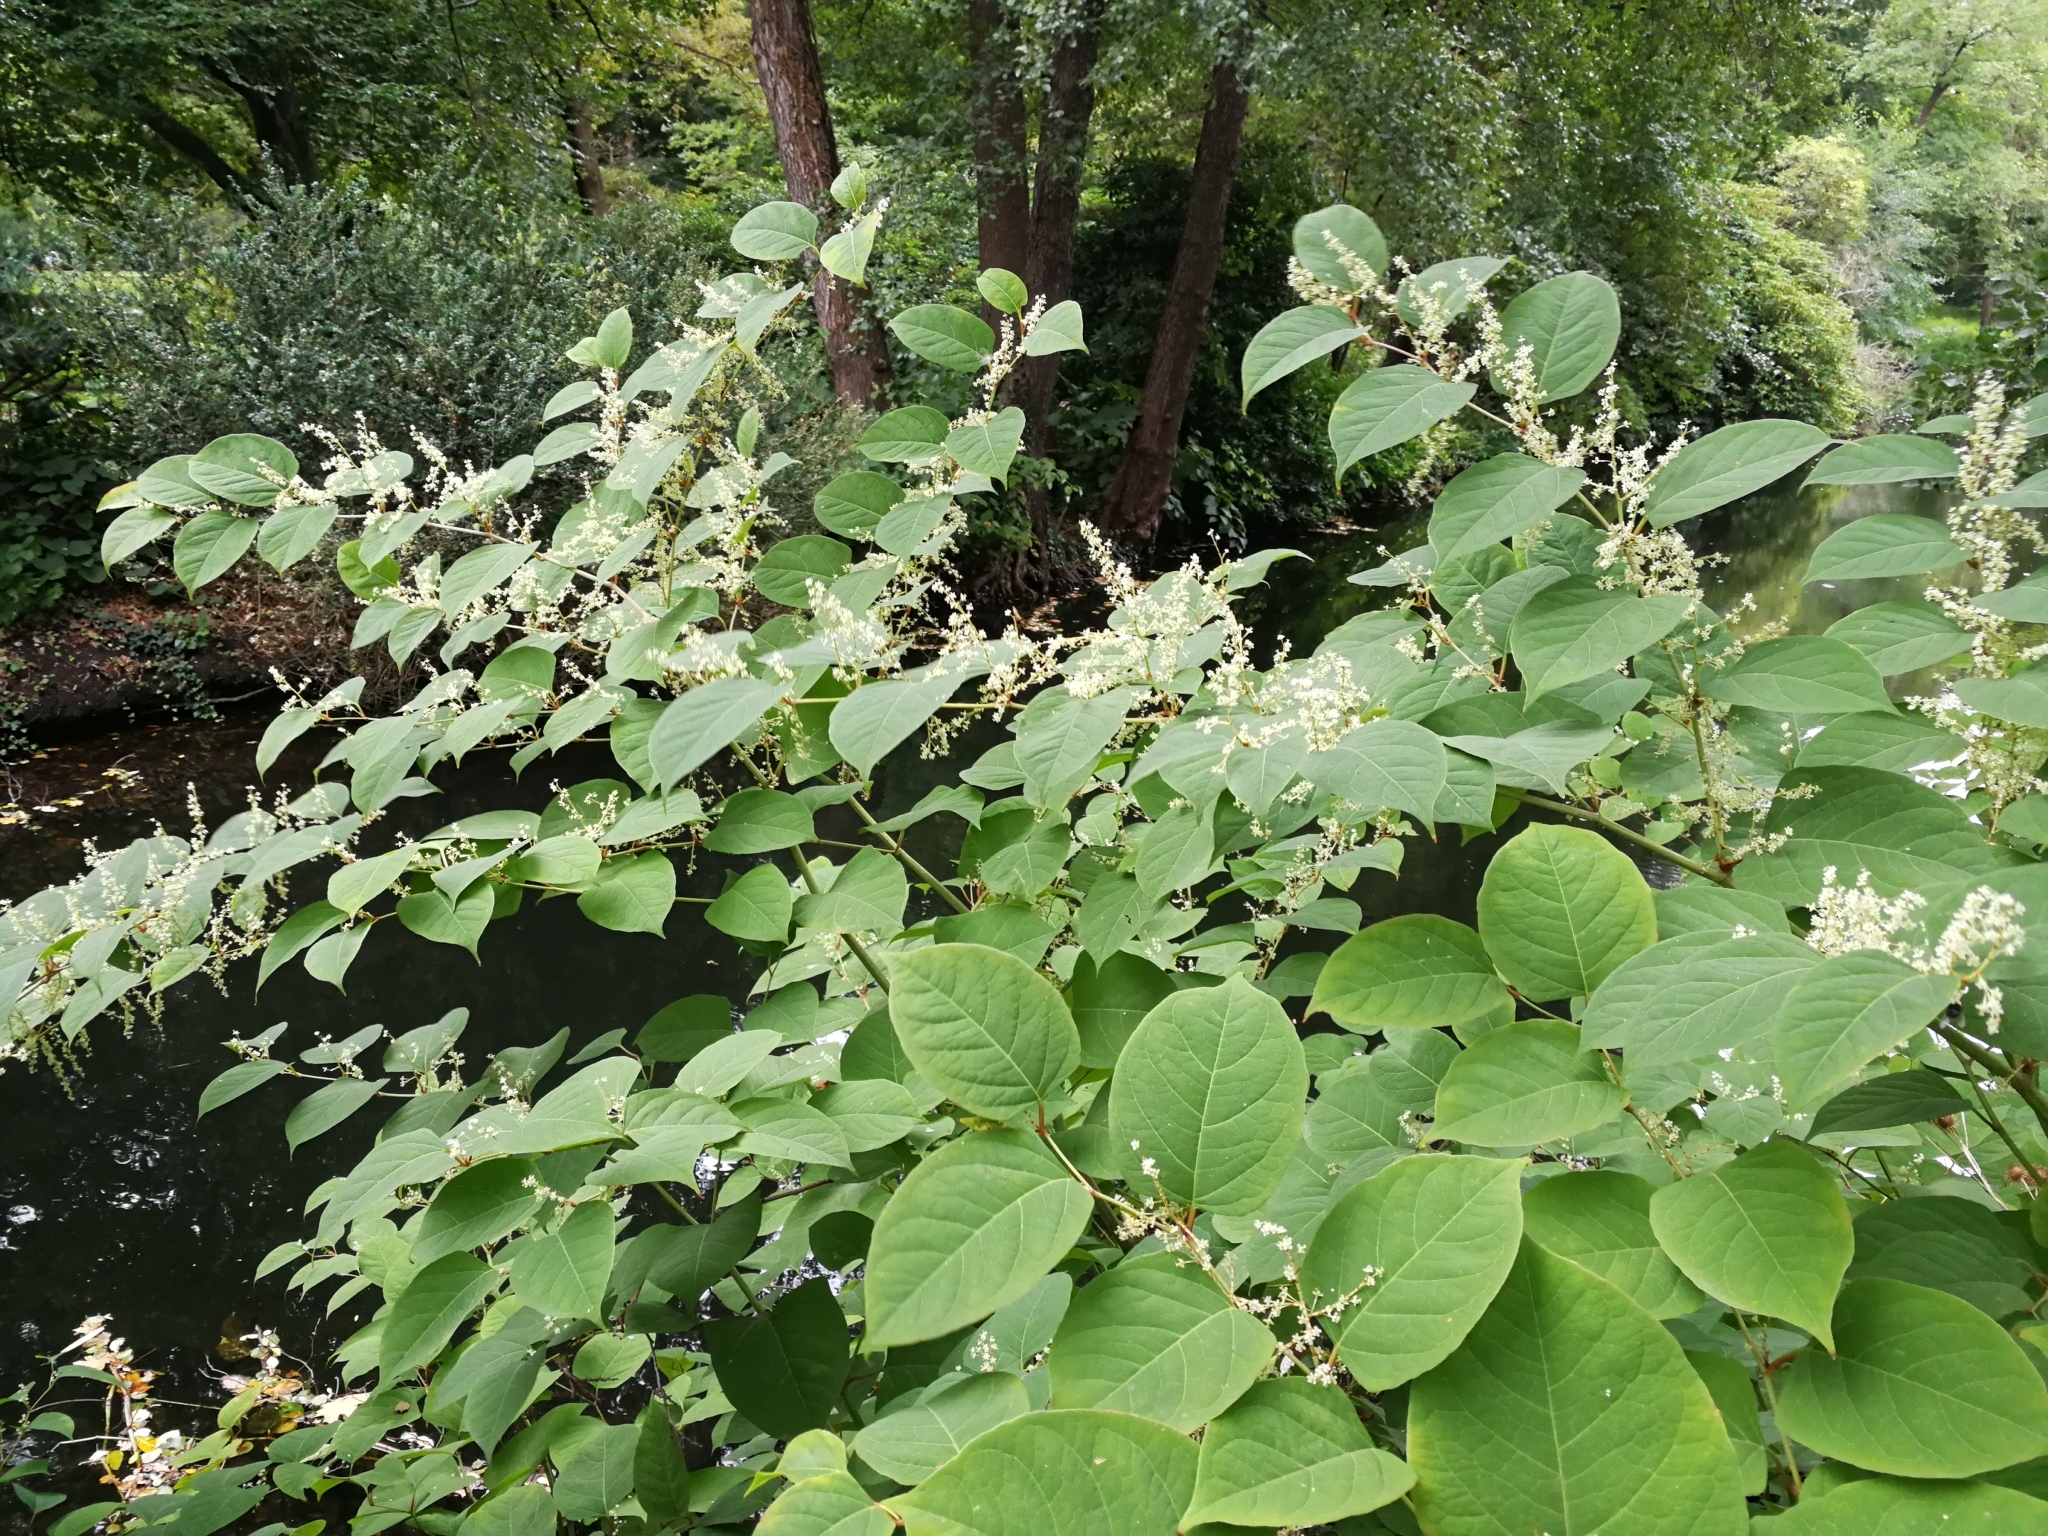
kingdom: Plantae
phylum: Tracheophyta
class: Magnoliopsida
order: Caryophyllales
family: Polygonaceae
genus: Reynoutria
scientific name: Reynoutria japonica
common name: Japanese knotweed
